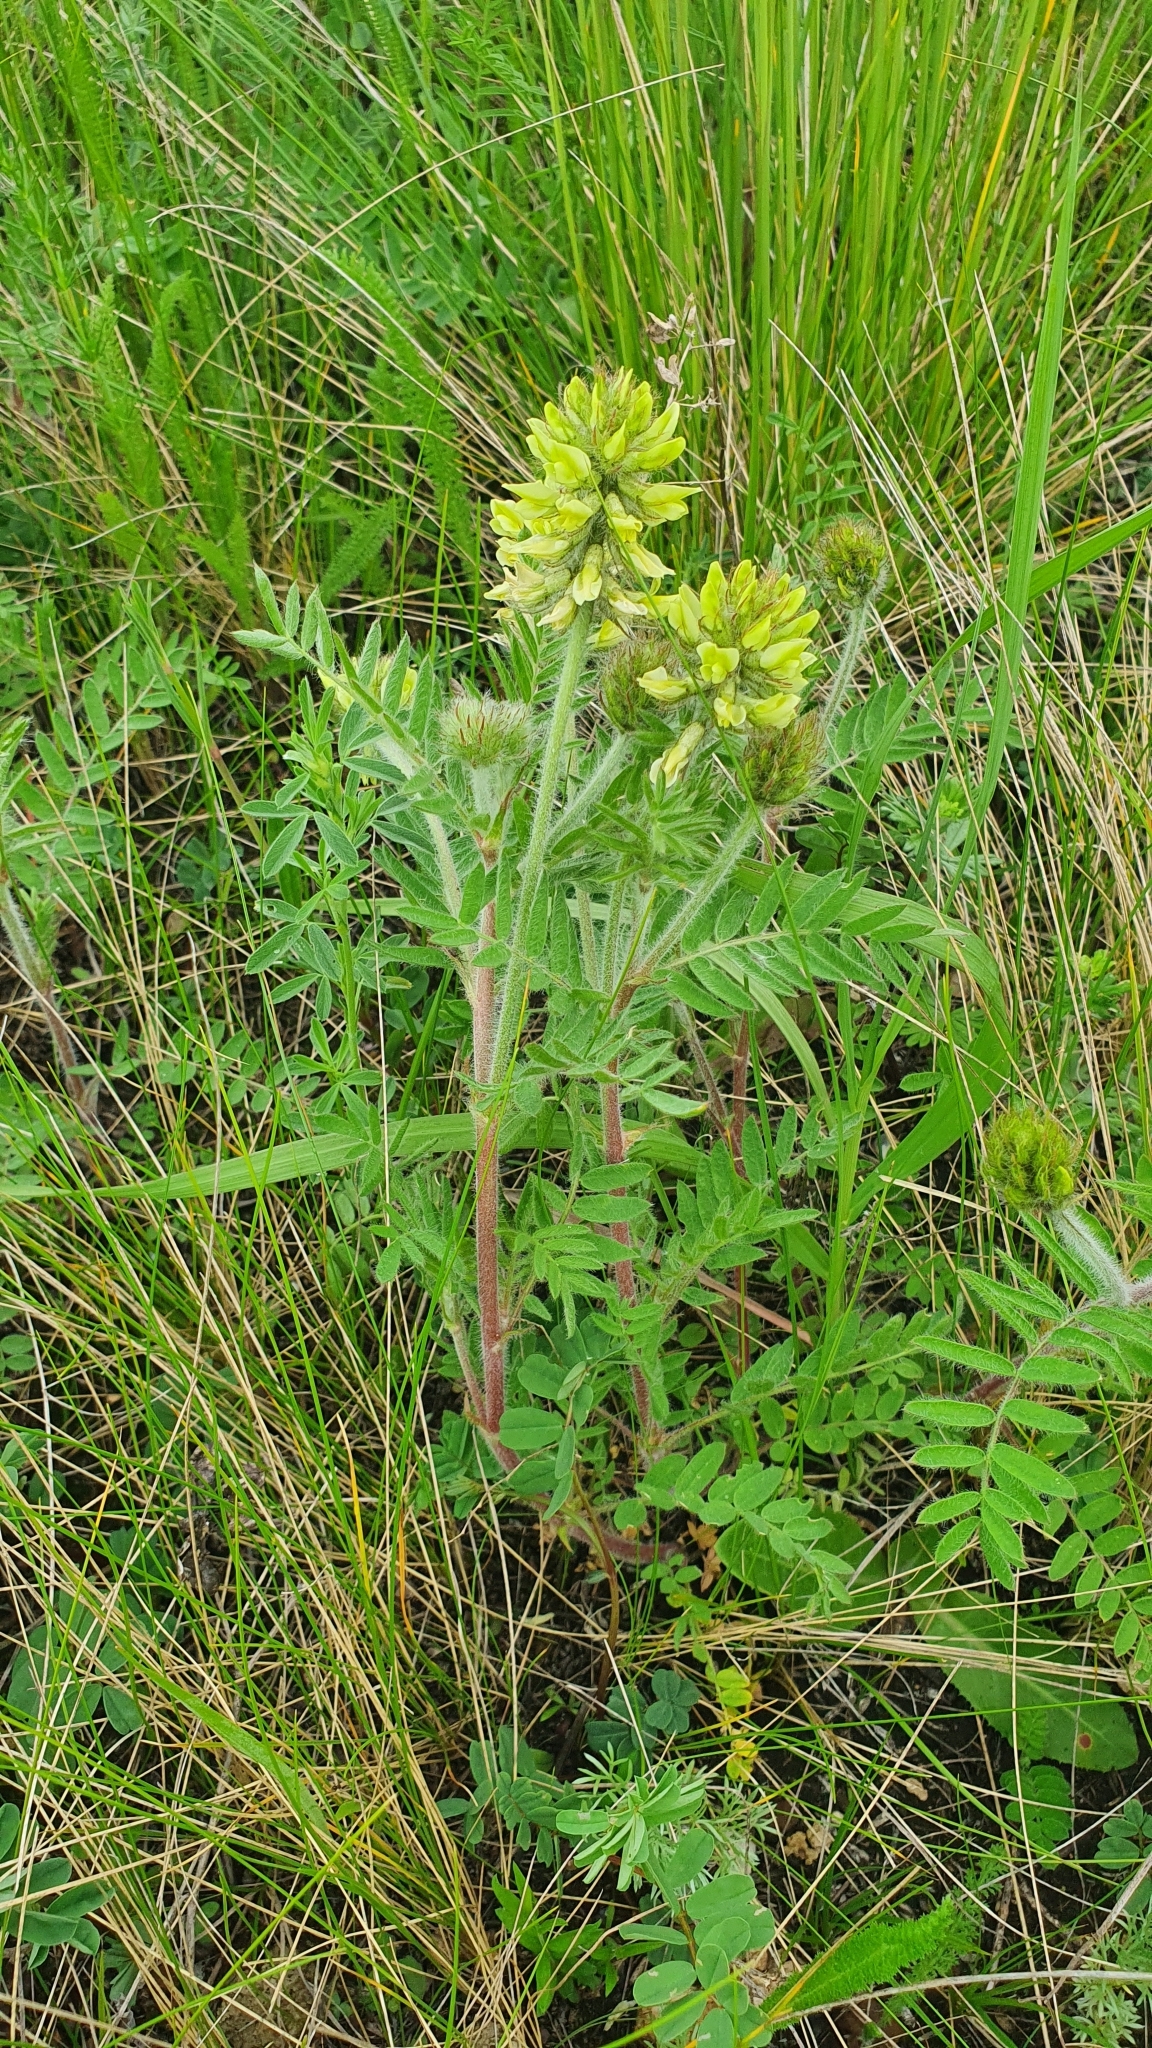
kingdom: Plantae
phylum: Tracheophyta
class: Magnoliopsida
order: Fabales
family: Fabaceae
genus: Oxytropis
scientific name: Oxytropis pilosa
